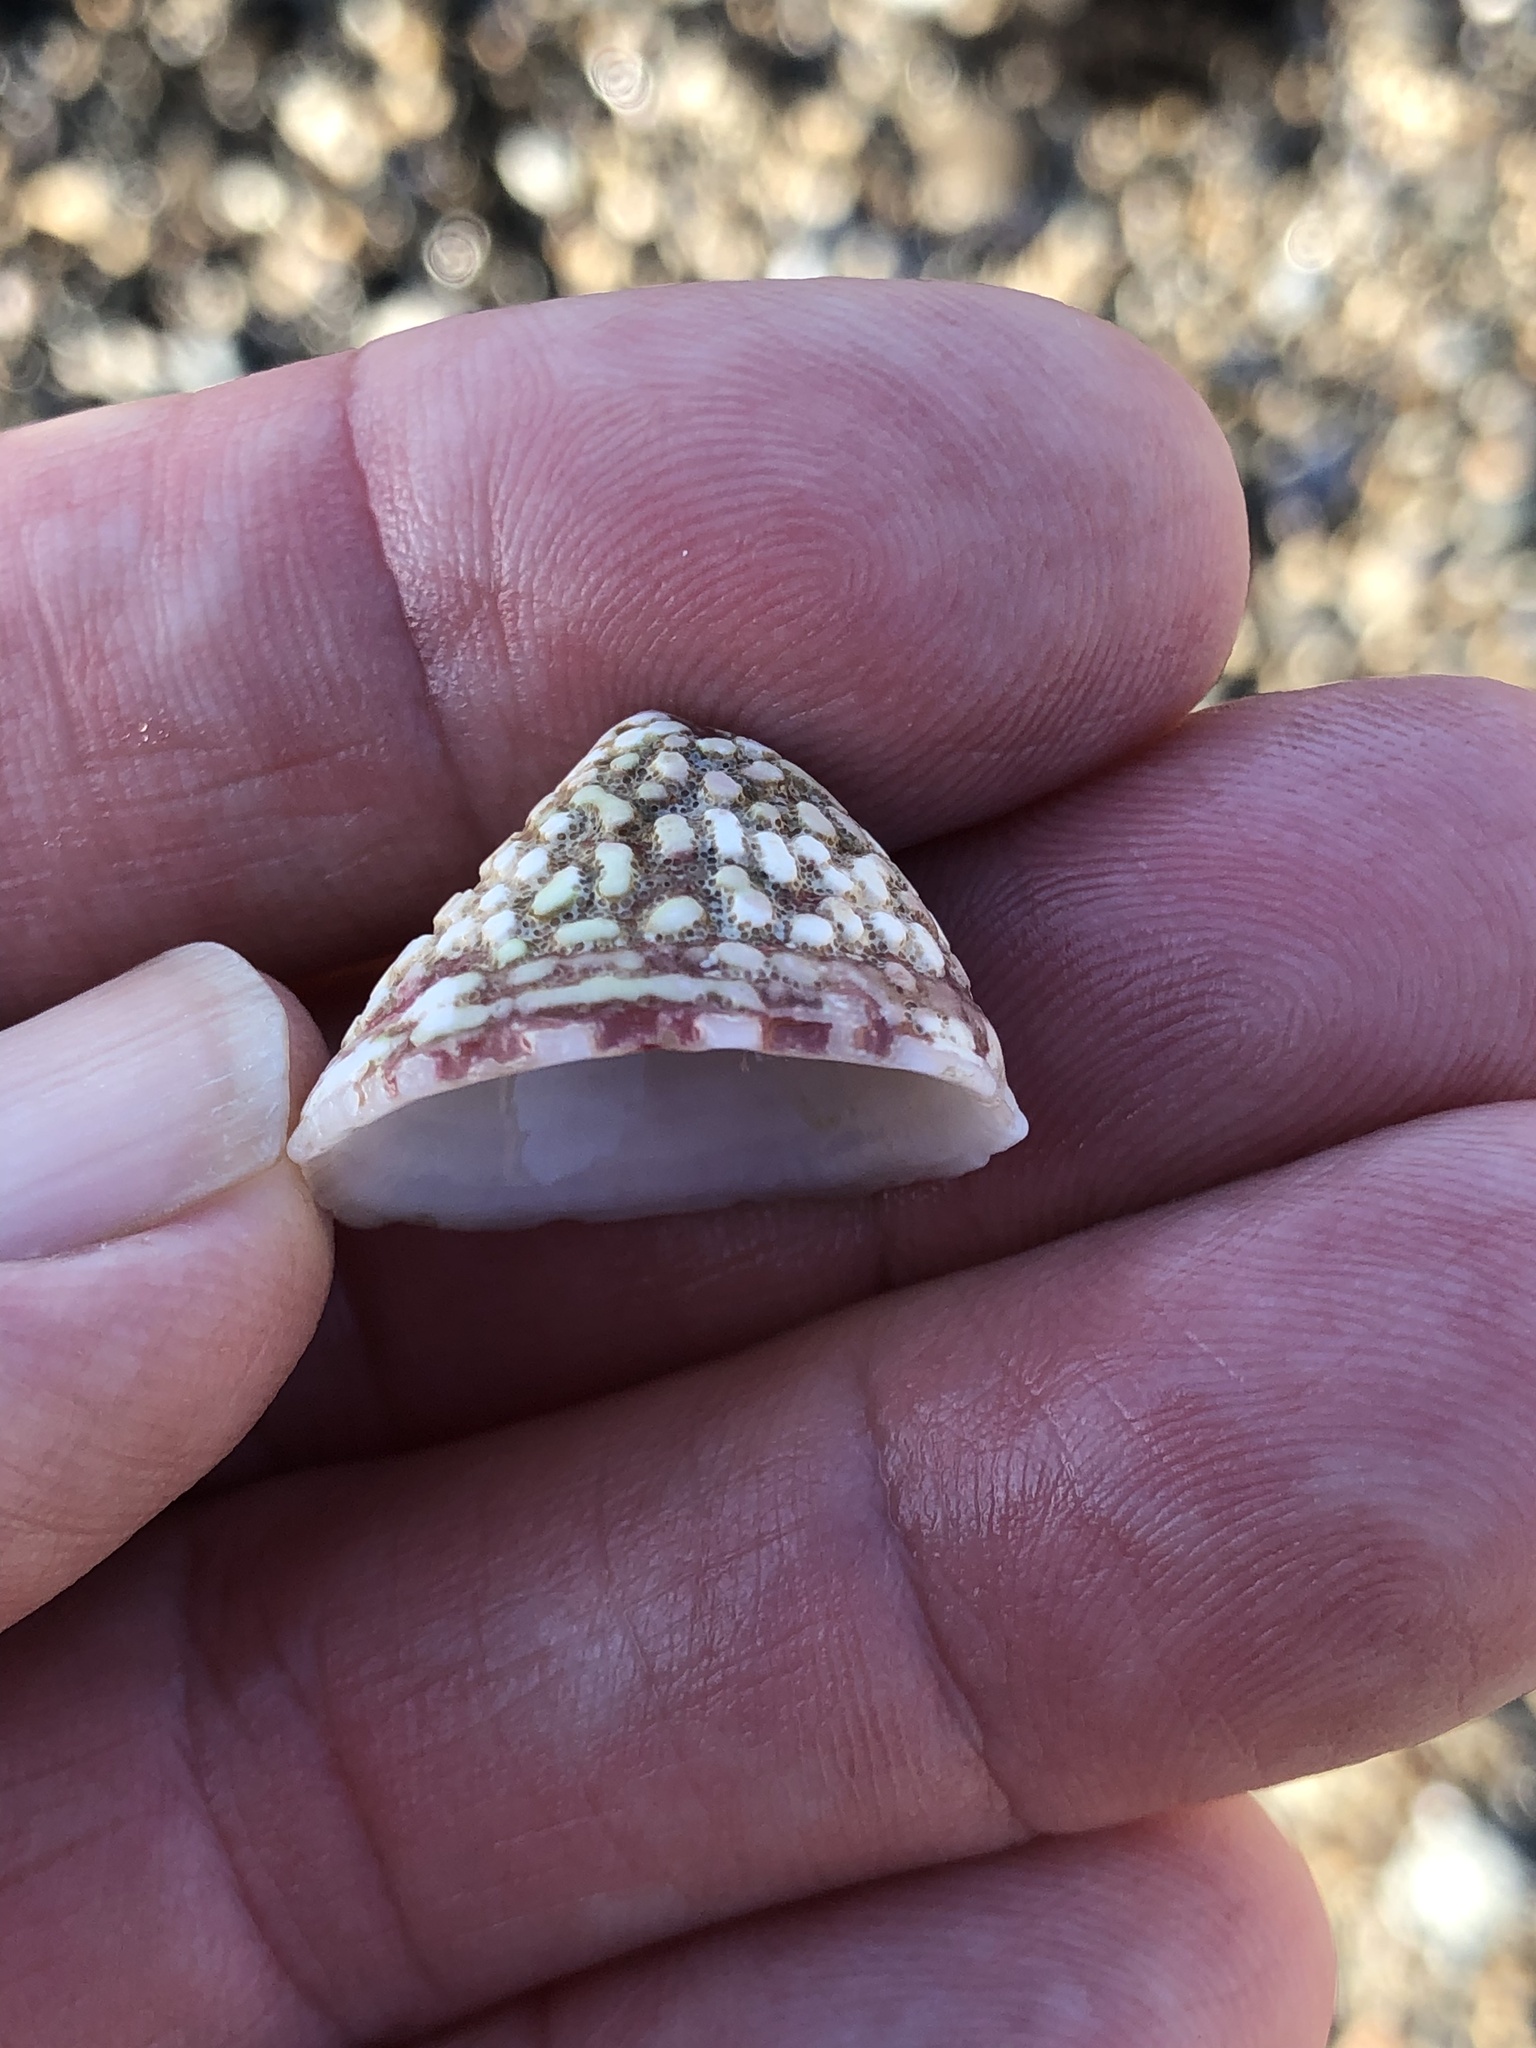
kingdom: Animalia
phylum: Mollusca
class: Gastropoda
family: Acmaeidae
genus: Acmaea
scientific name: Acmaea mitra
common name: Pacific white cap limpet
